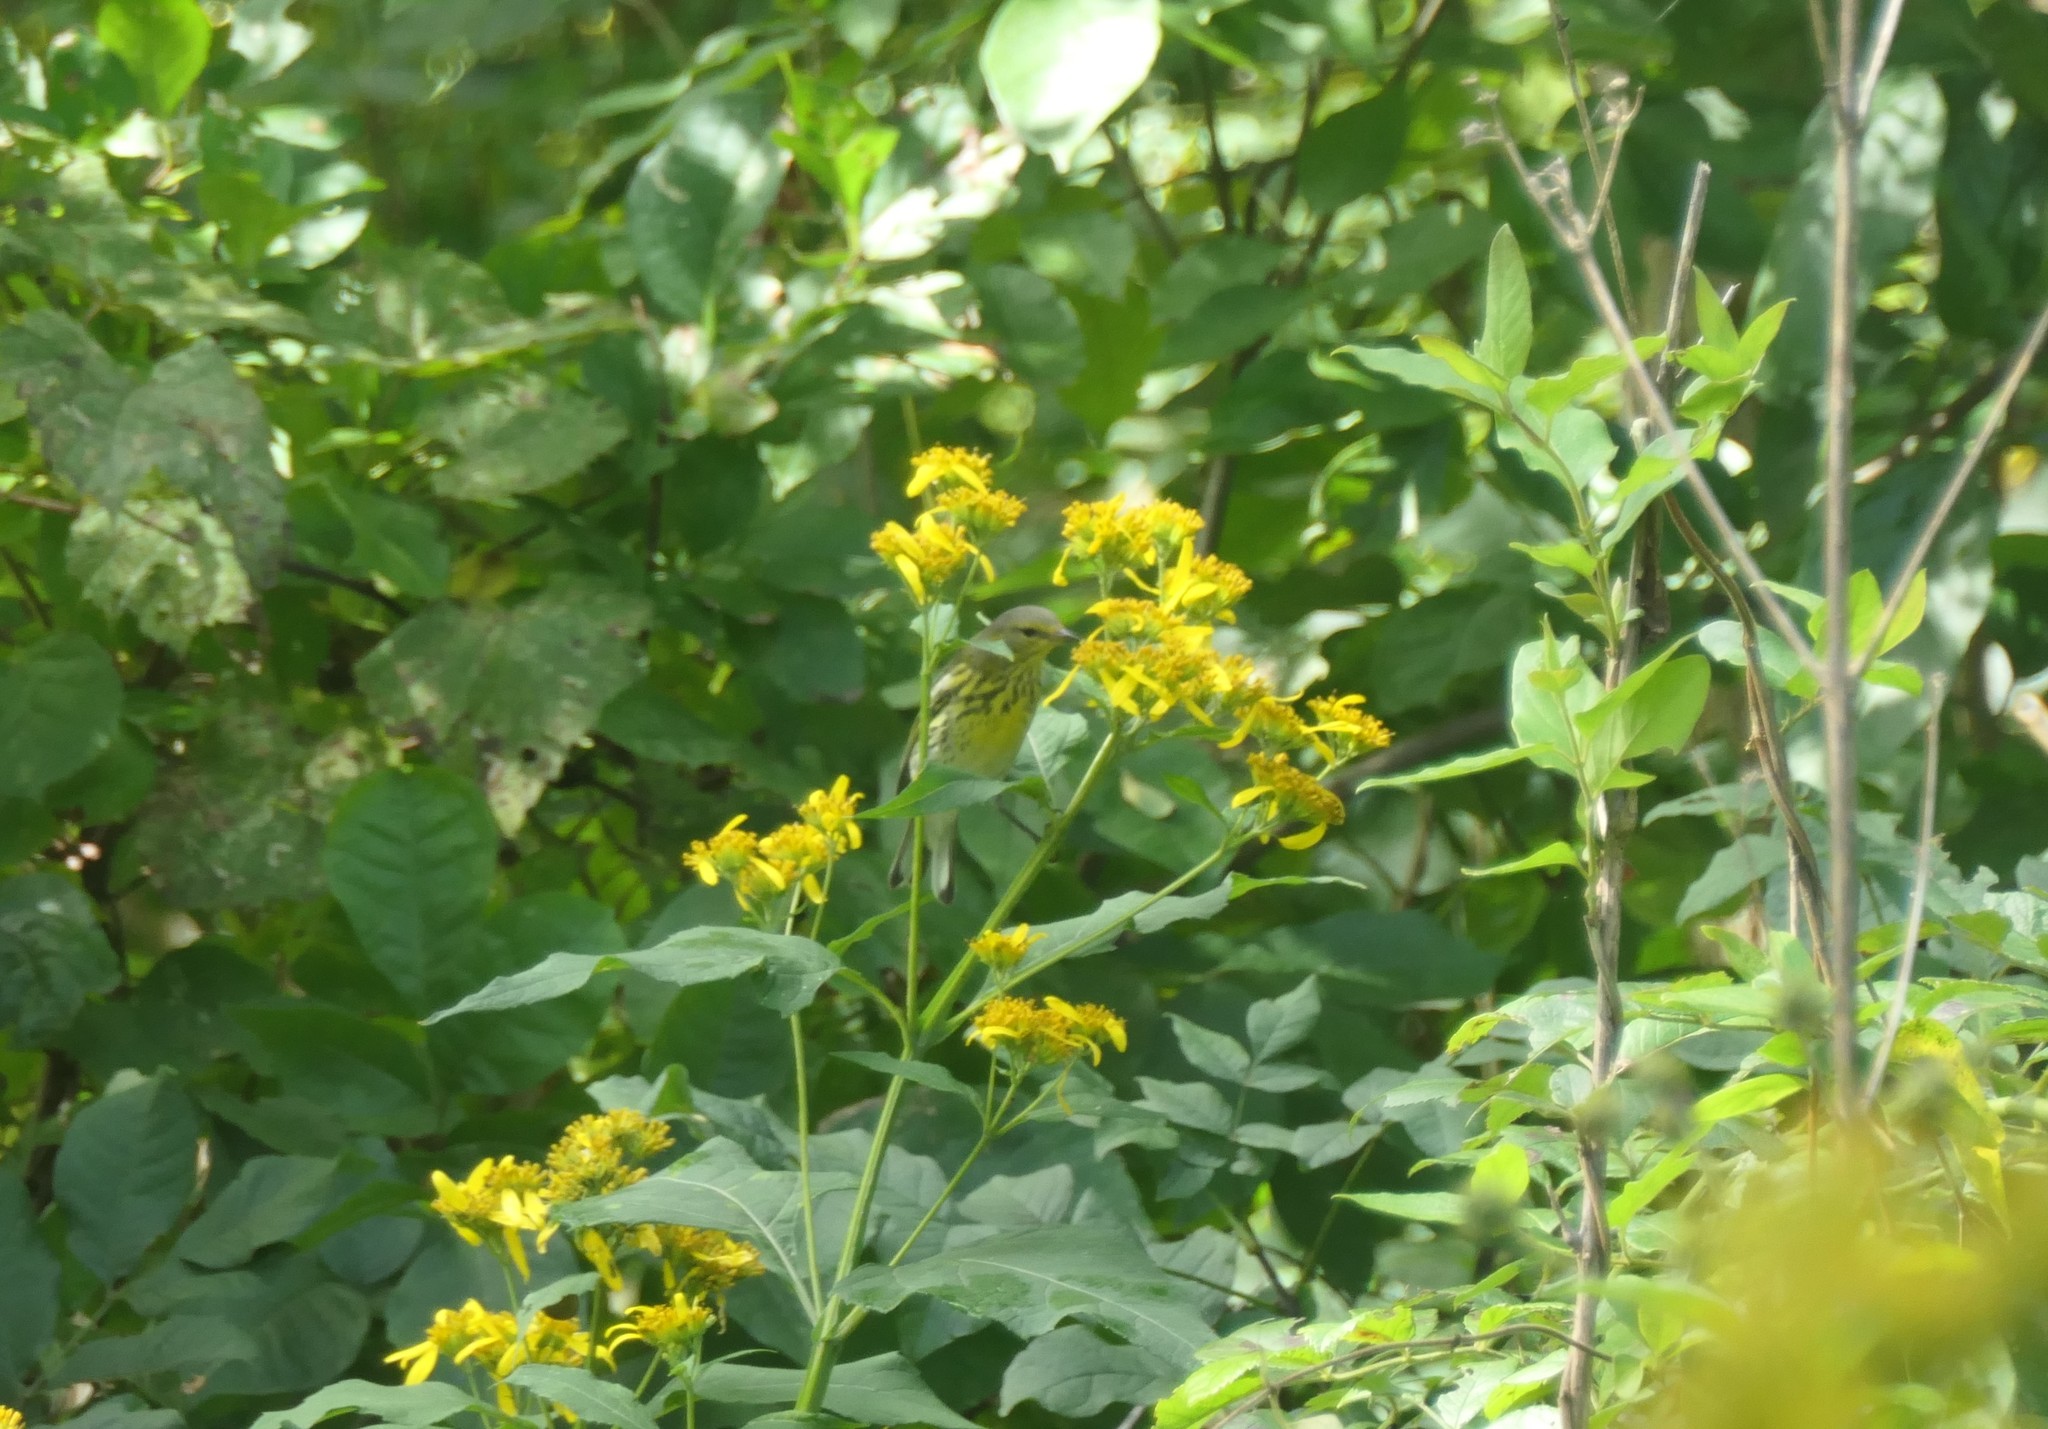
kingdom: Animalia
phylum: Chordata
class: Aves
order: Passeriformes
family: Parulidae
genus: Setophaga
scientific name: Setophaga tigrina
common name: Cape may warbler
